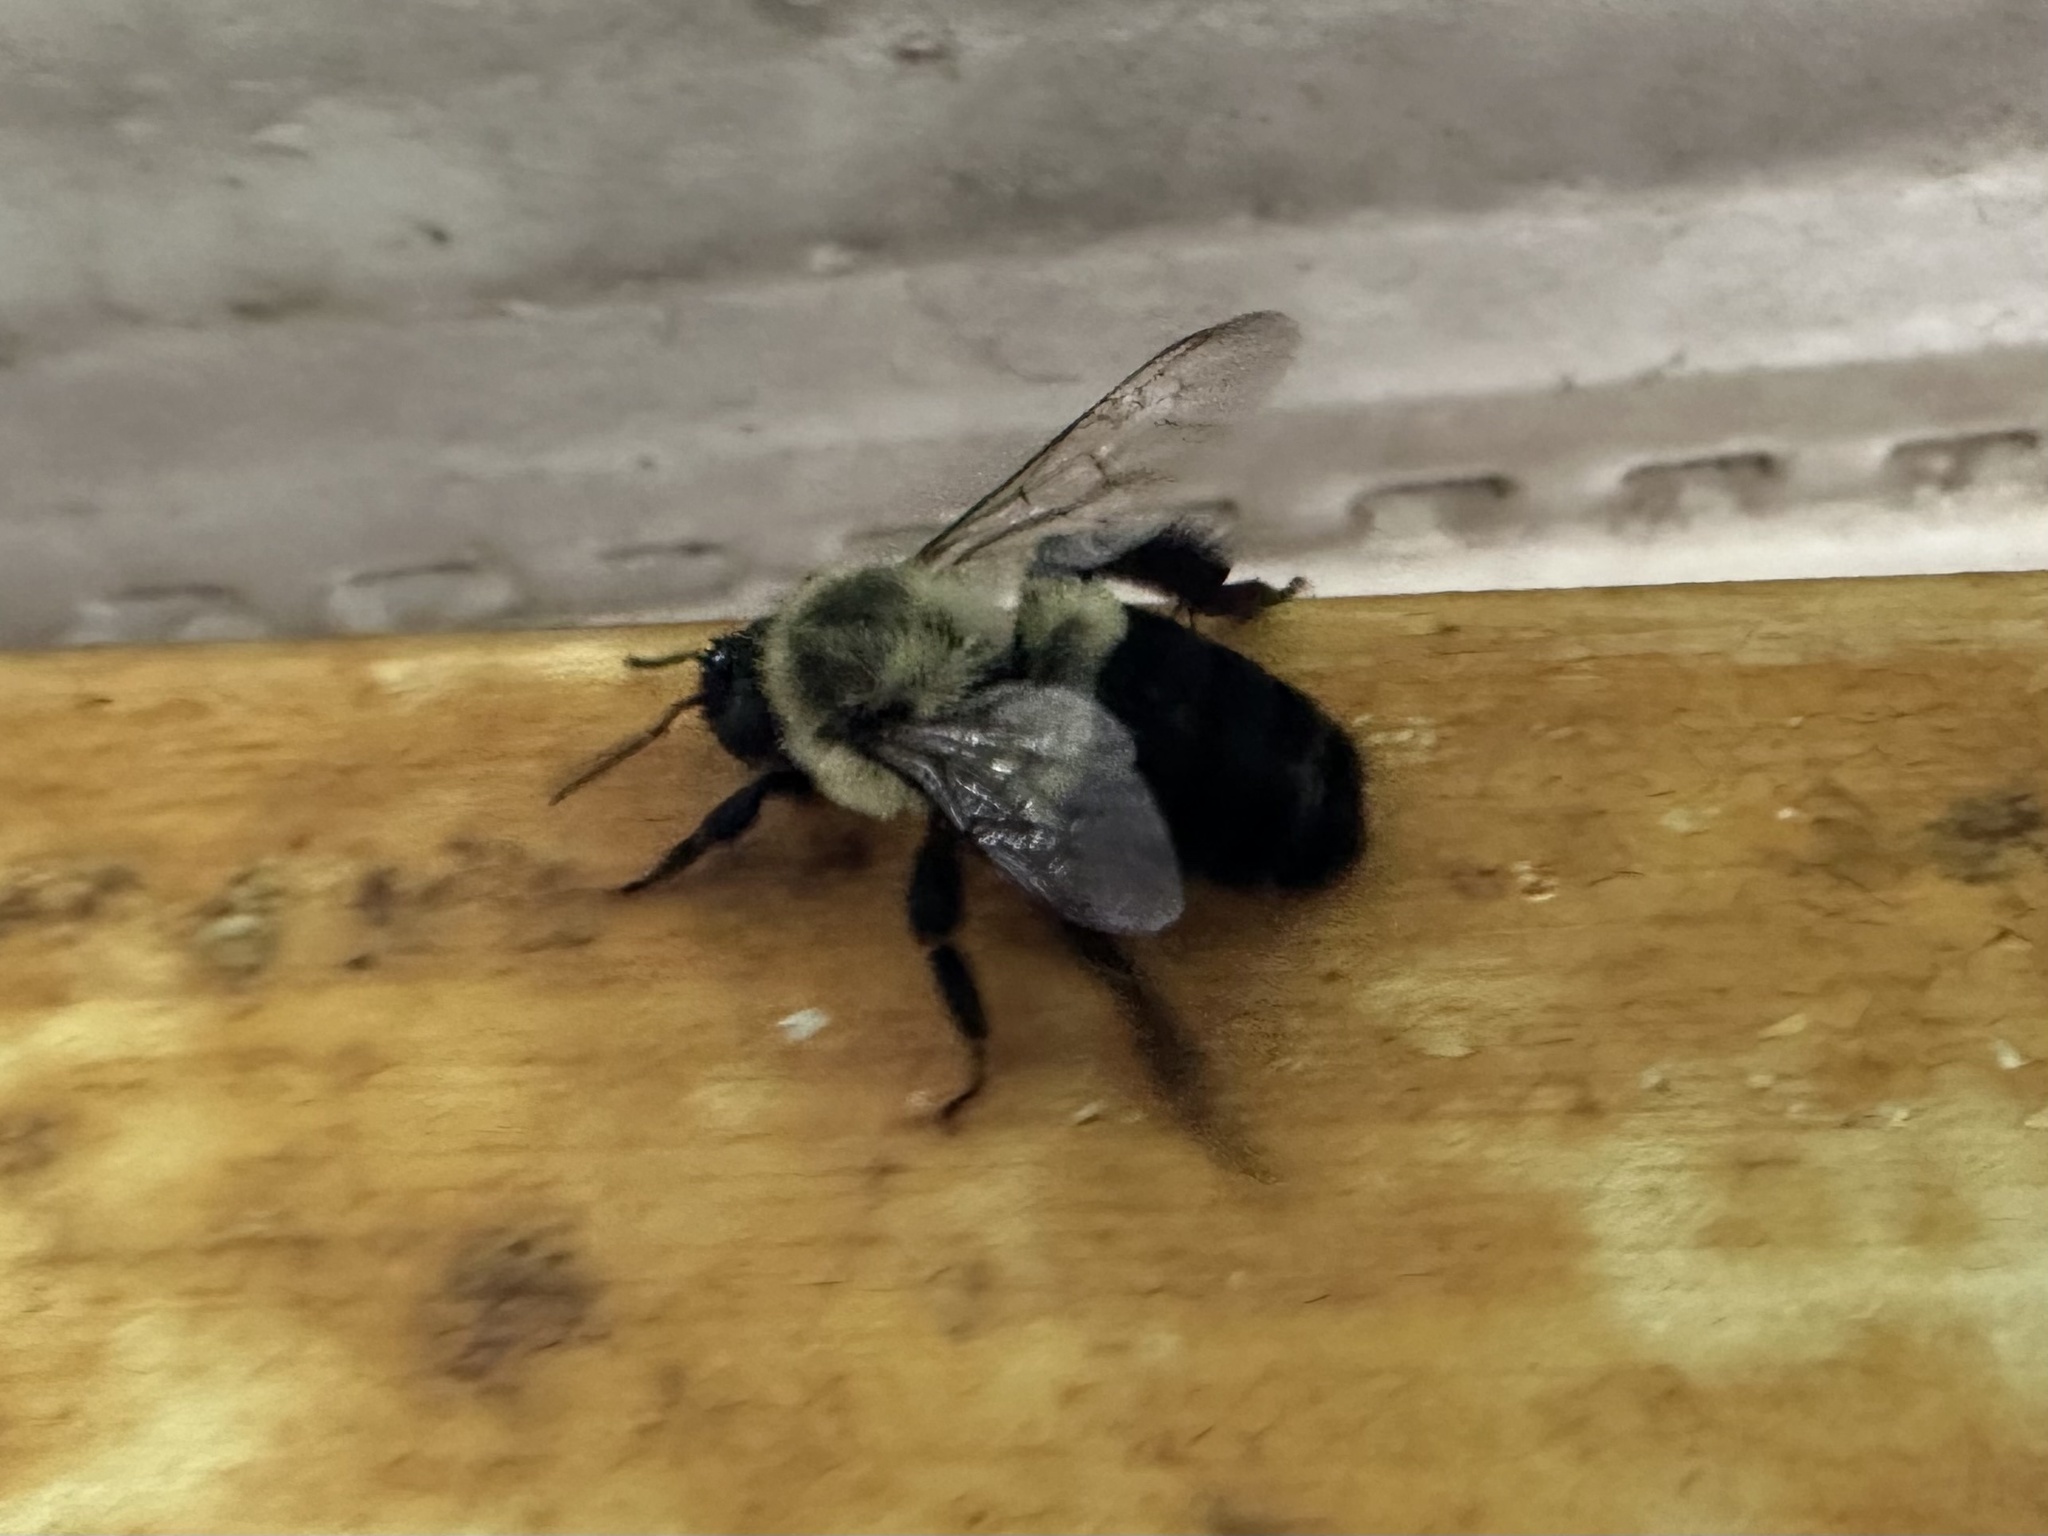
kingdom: Animalia
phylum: Arthropoda
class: Insecta
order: Hymenoptera
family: Apidae
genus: Bombus
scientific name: Bombus impatiens
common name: Common eastern bumble bee
